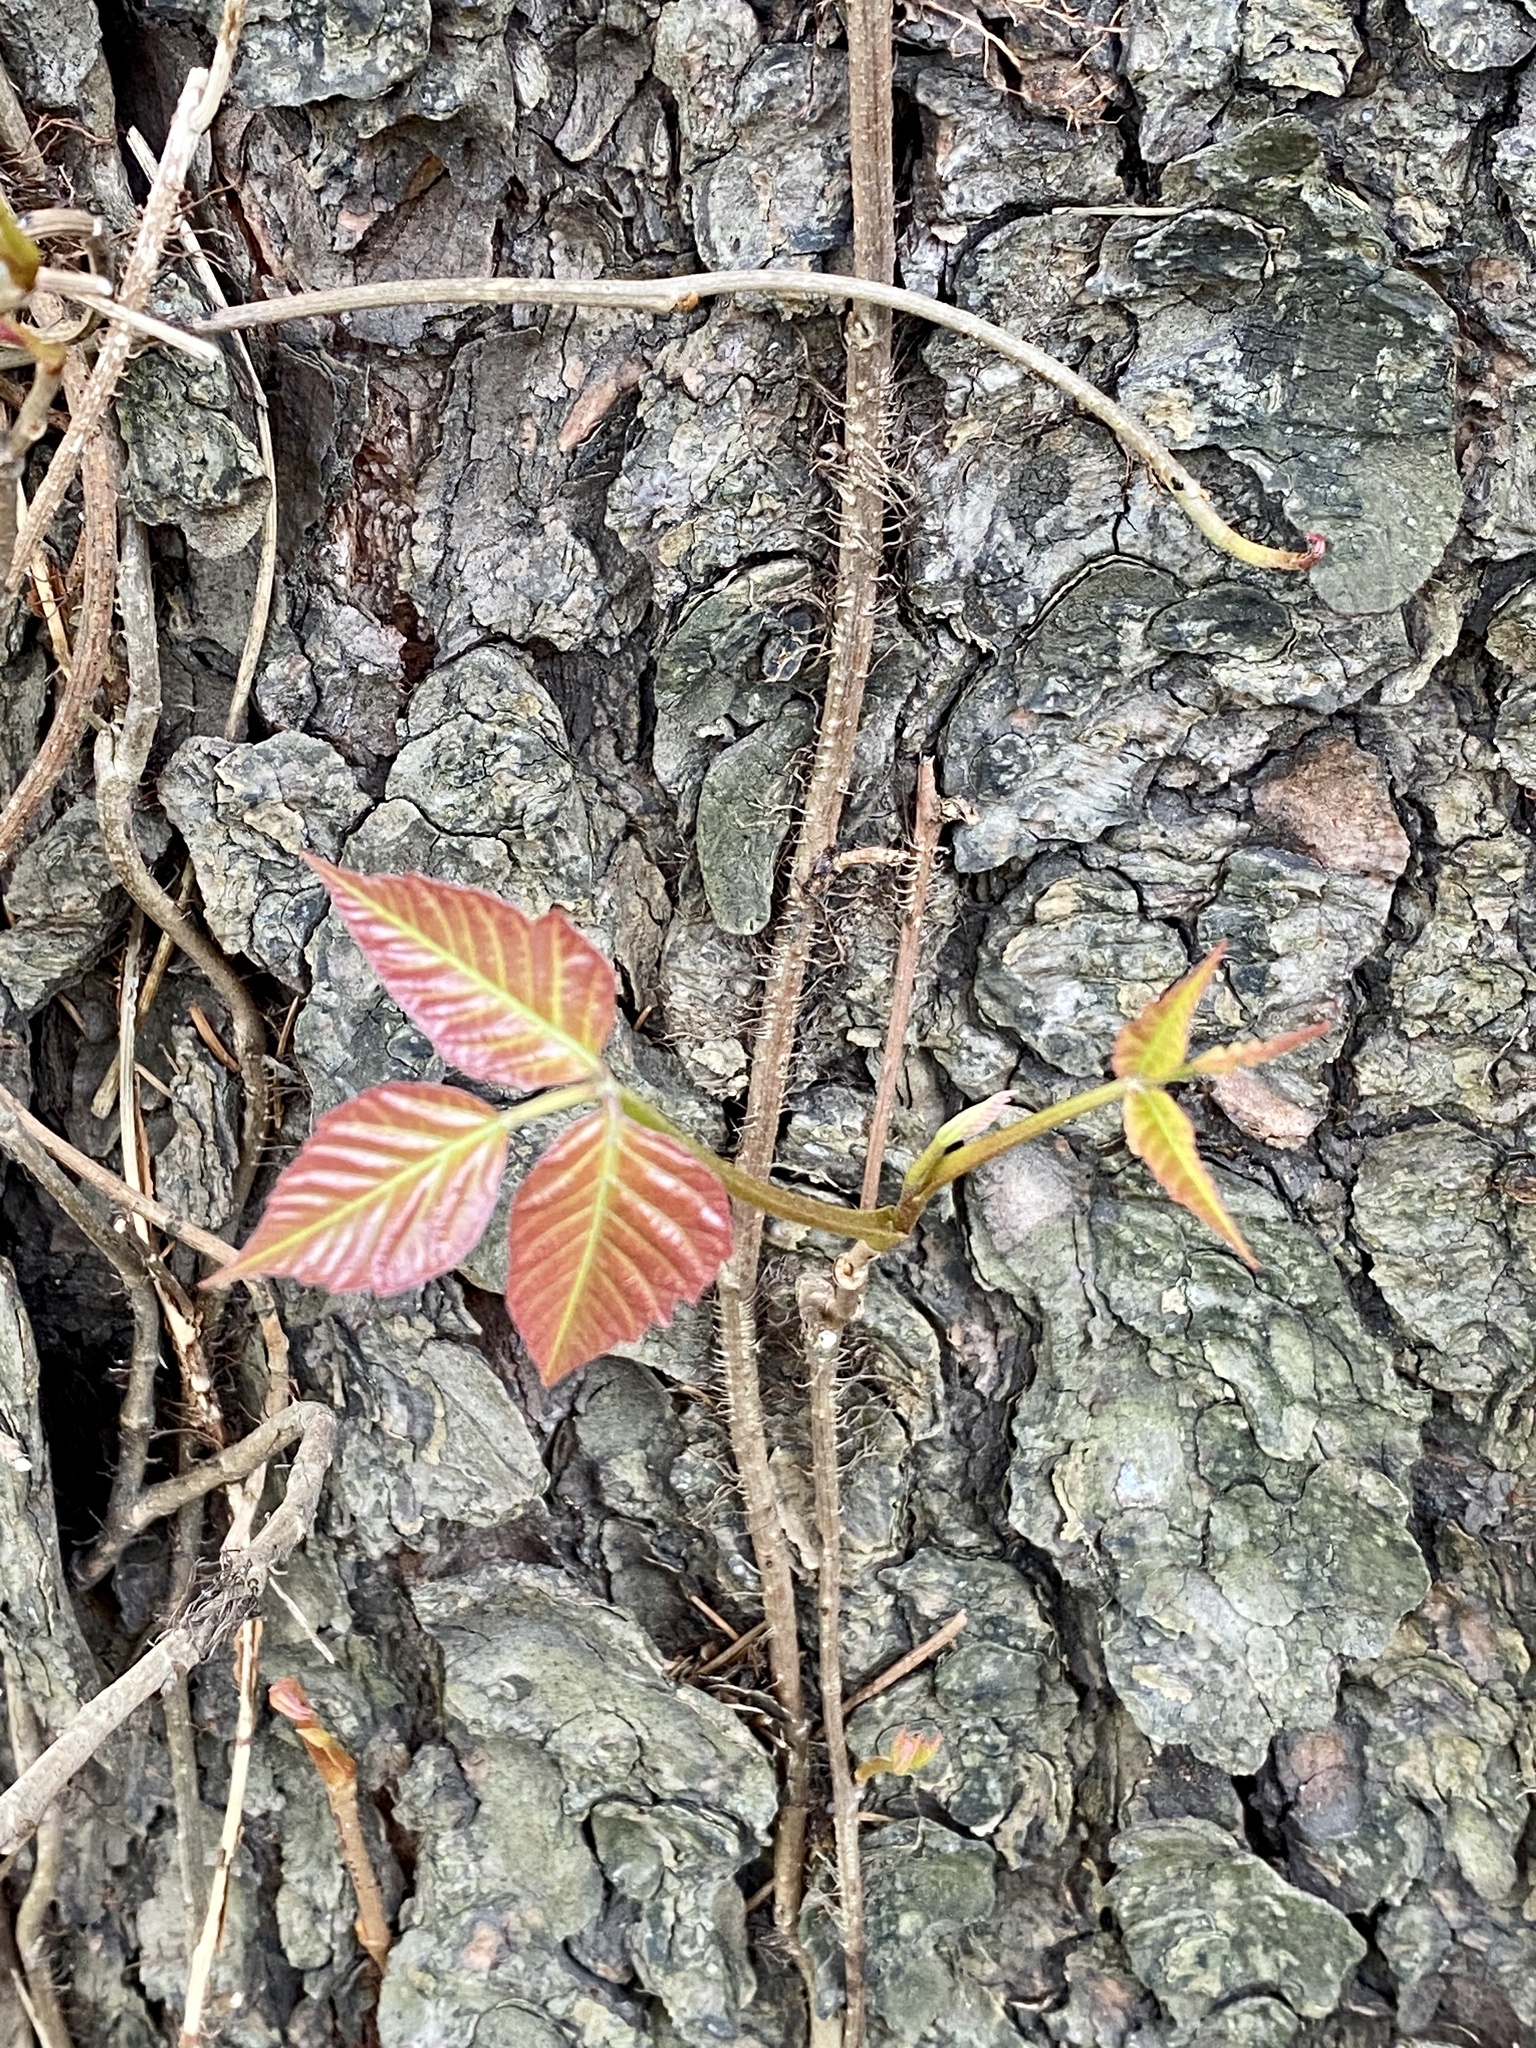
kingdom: Plantae
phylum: Tracheophyta
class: Magnoliopsida
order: Sapindales
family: Anacardiaceae
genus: Toxicodendron
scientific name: Toxicodendron radicans
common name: Poison ivy
